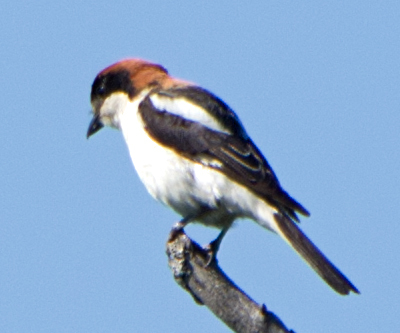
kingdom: Animalia
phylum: Chordata
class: Aves
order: Passeriformes
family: Laniidae
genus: Lanius
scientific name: Lanius senator
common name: Woodchat shrike
